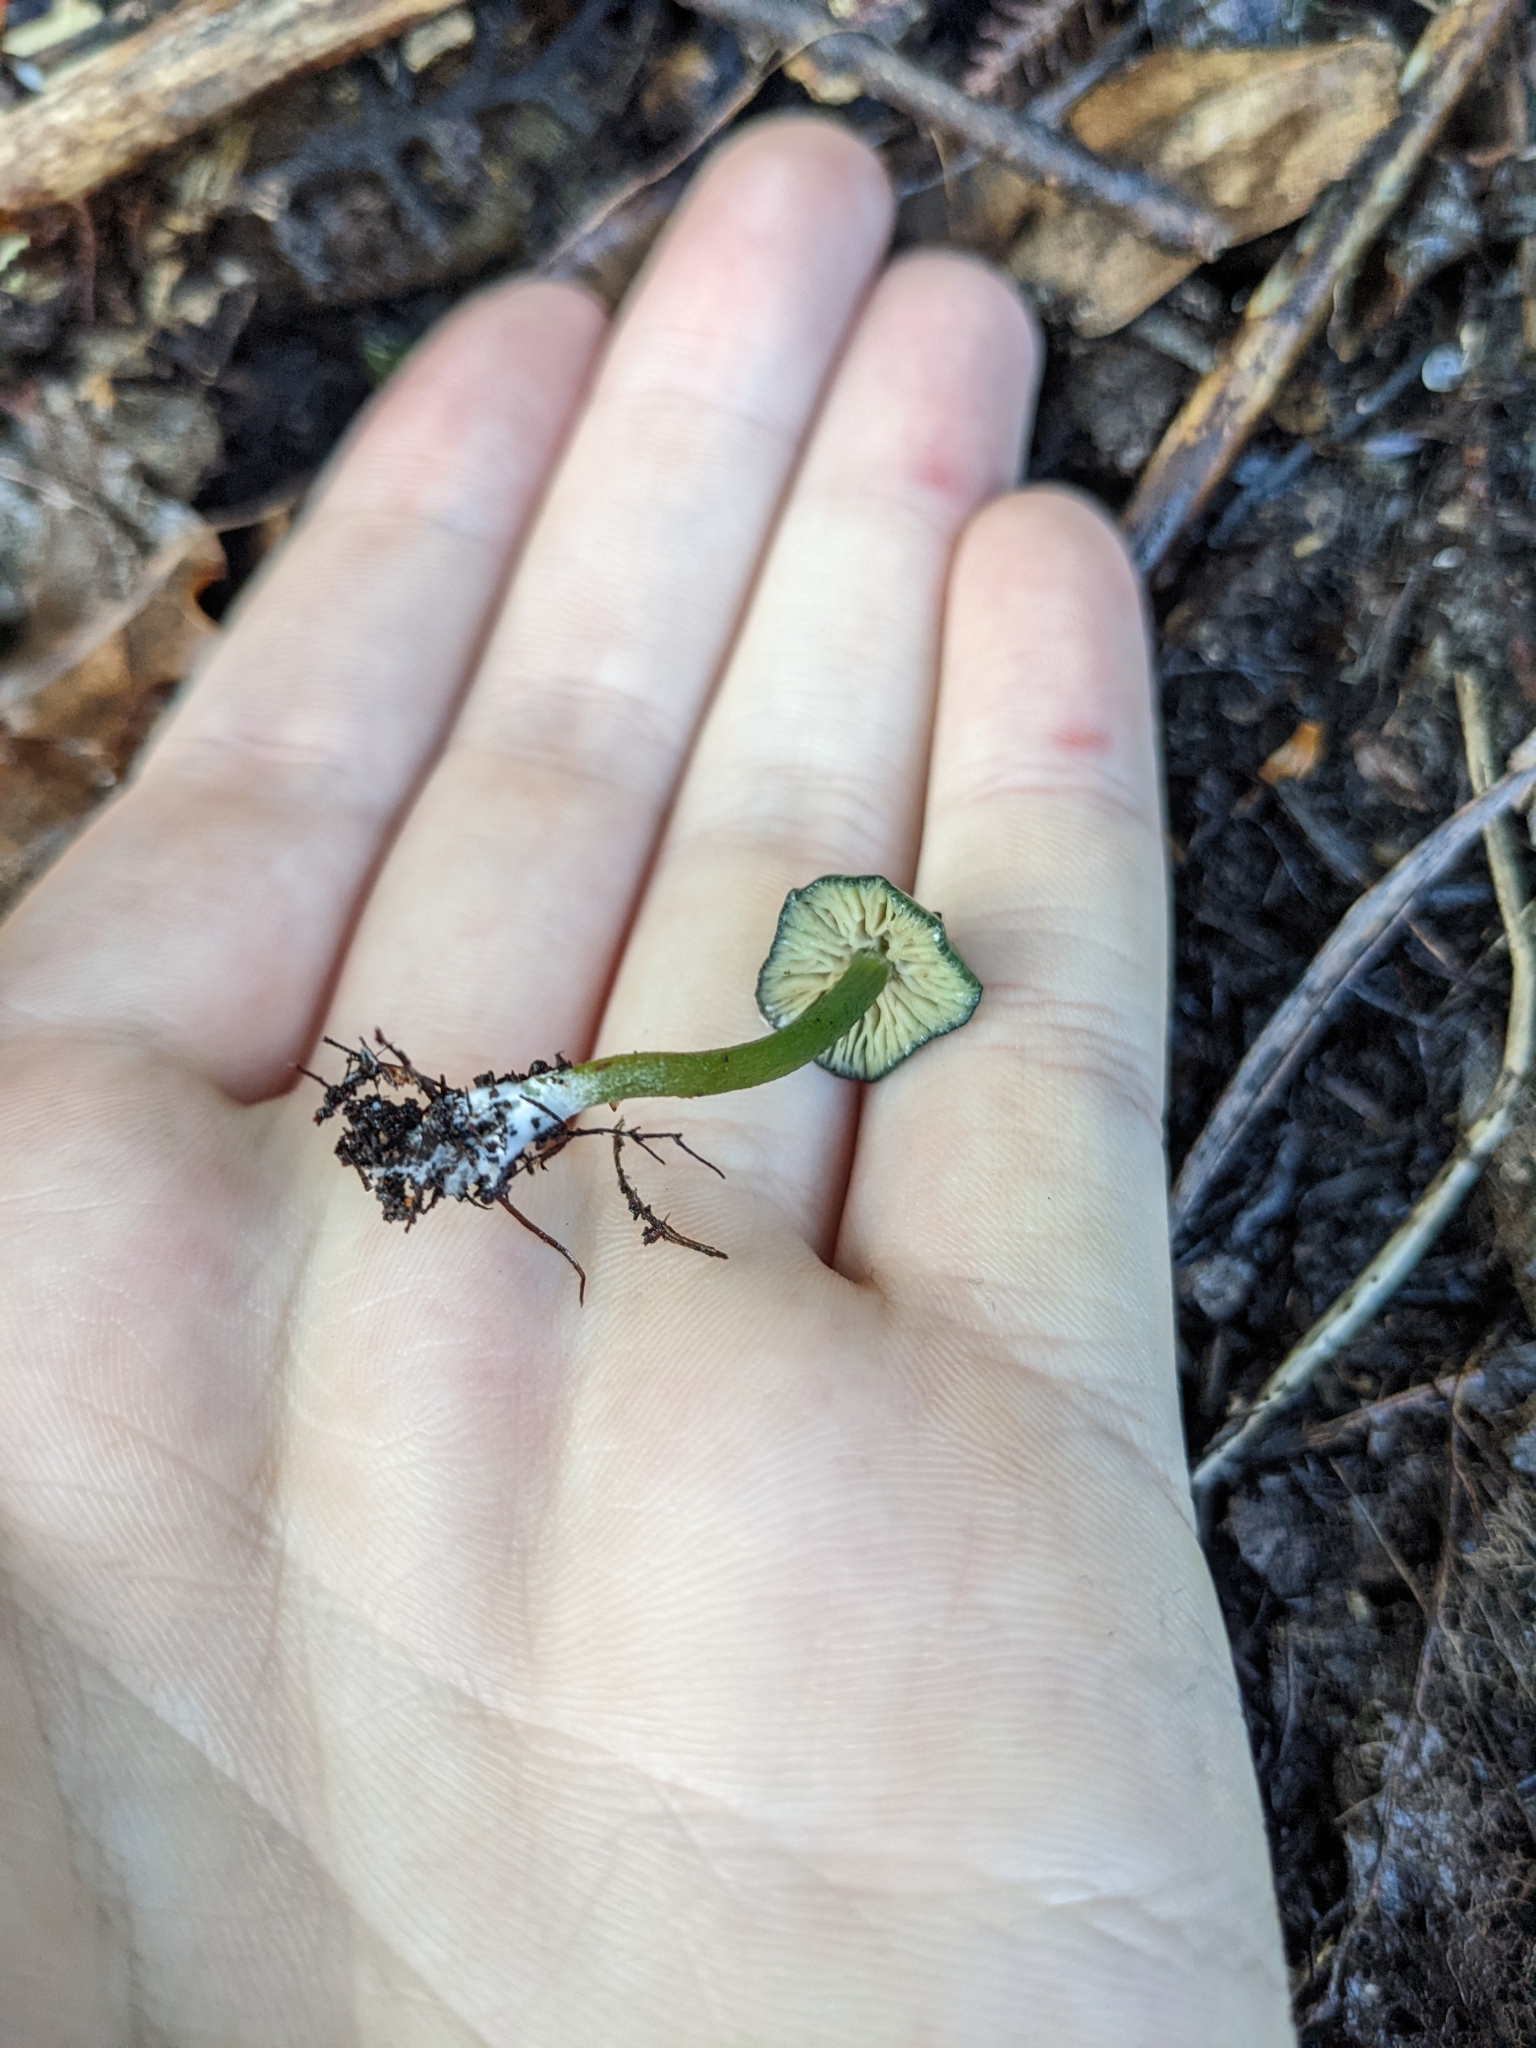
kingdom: Fungi
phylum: Basidiomycota
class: Agaricomycetes
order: Agaricales
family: Entolomataceae
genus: Entoloma
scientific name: Entoloma glaucoroseum
